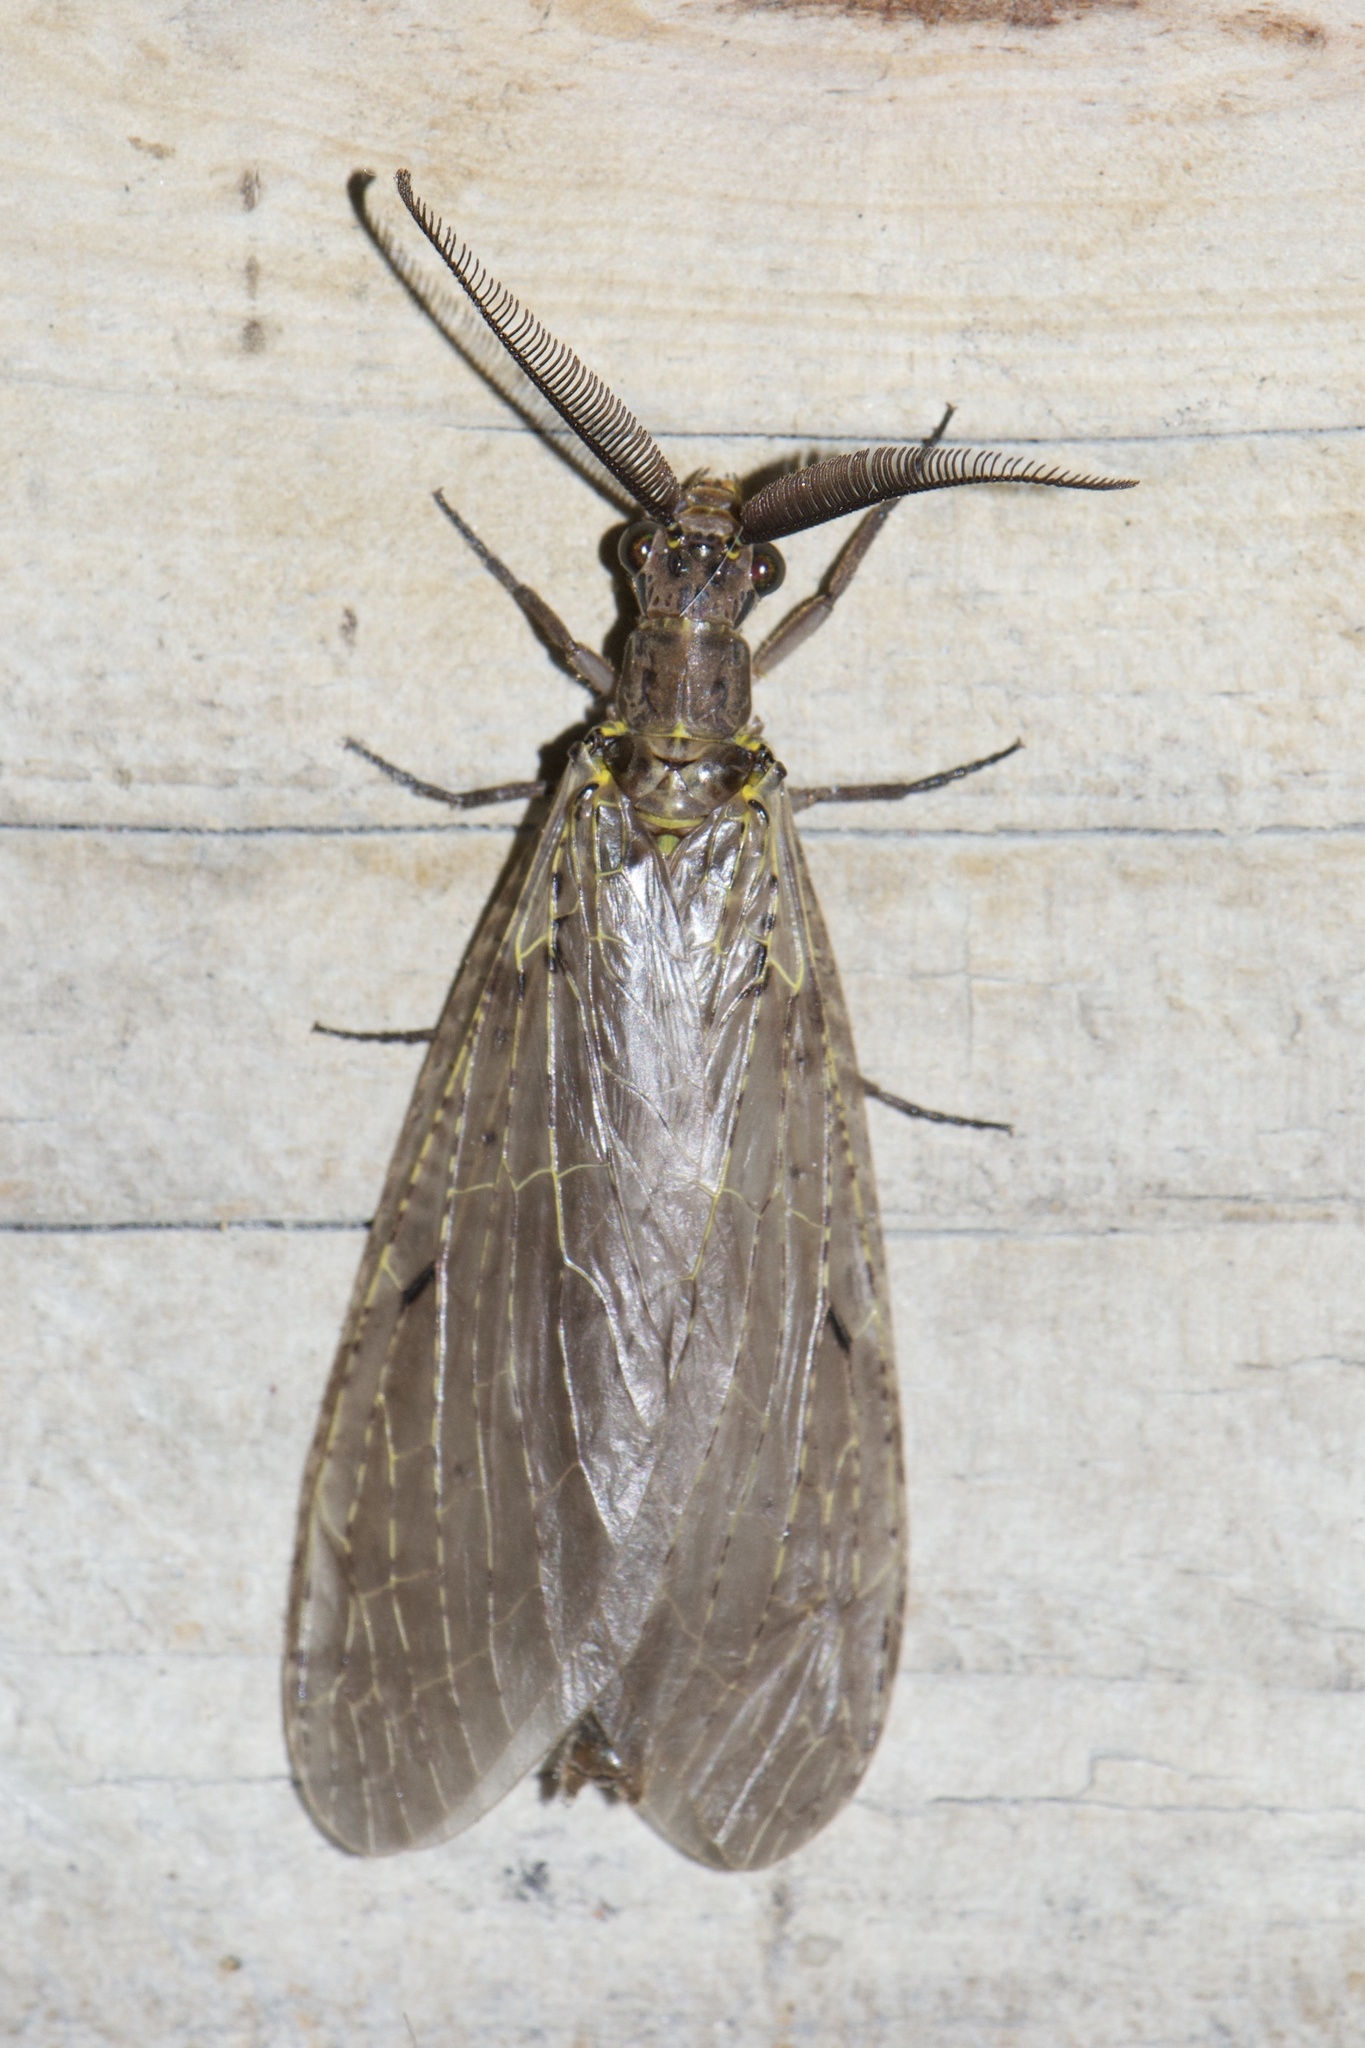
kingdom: Animalia
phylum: Arthropoda
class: Insecta
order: Megaloptera
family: Corydalidae
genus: Chauliodes
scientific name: Chauliodes rastricornis
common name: Spring fishfly
